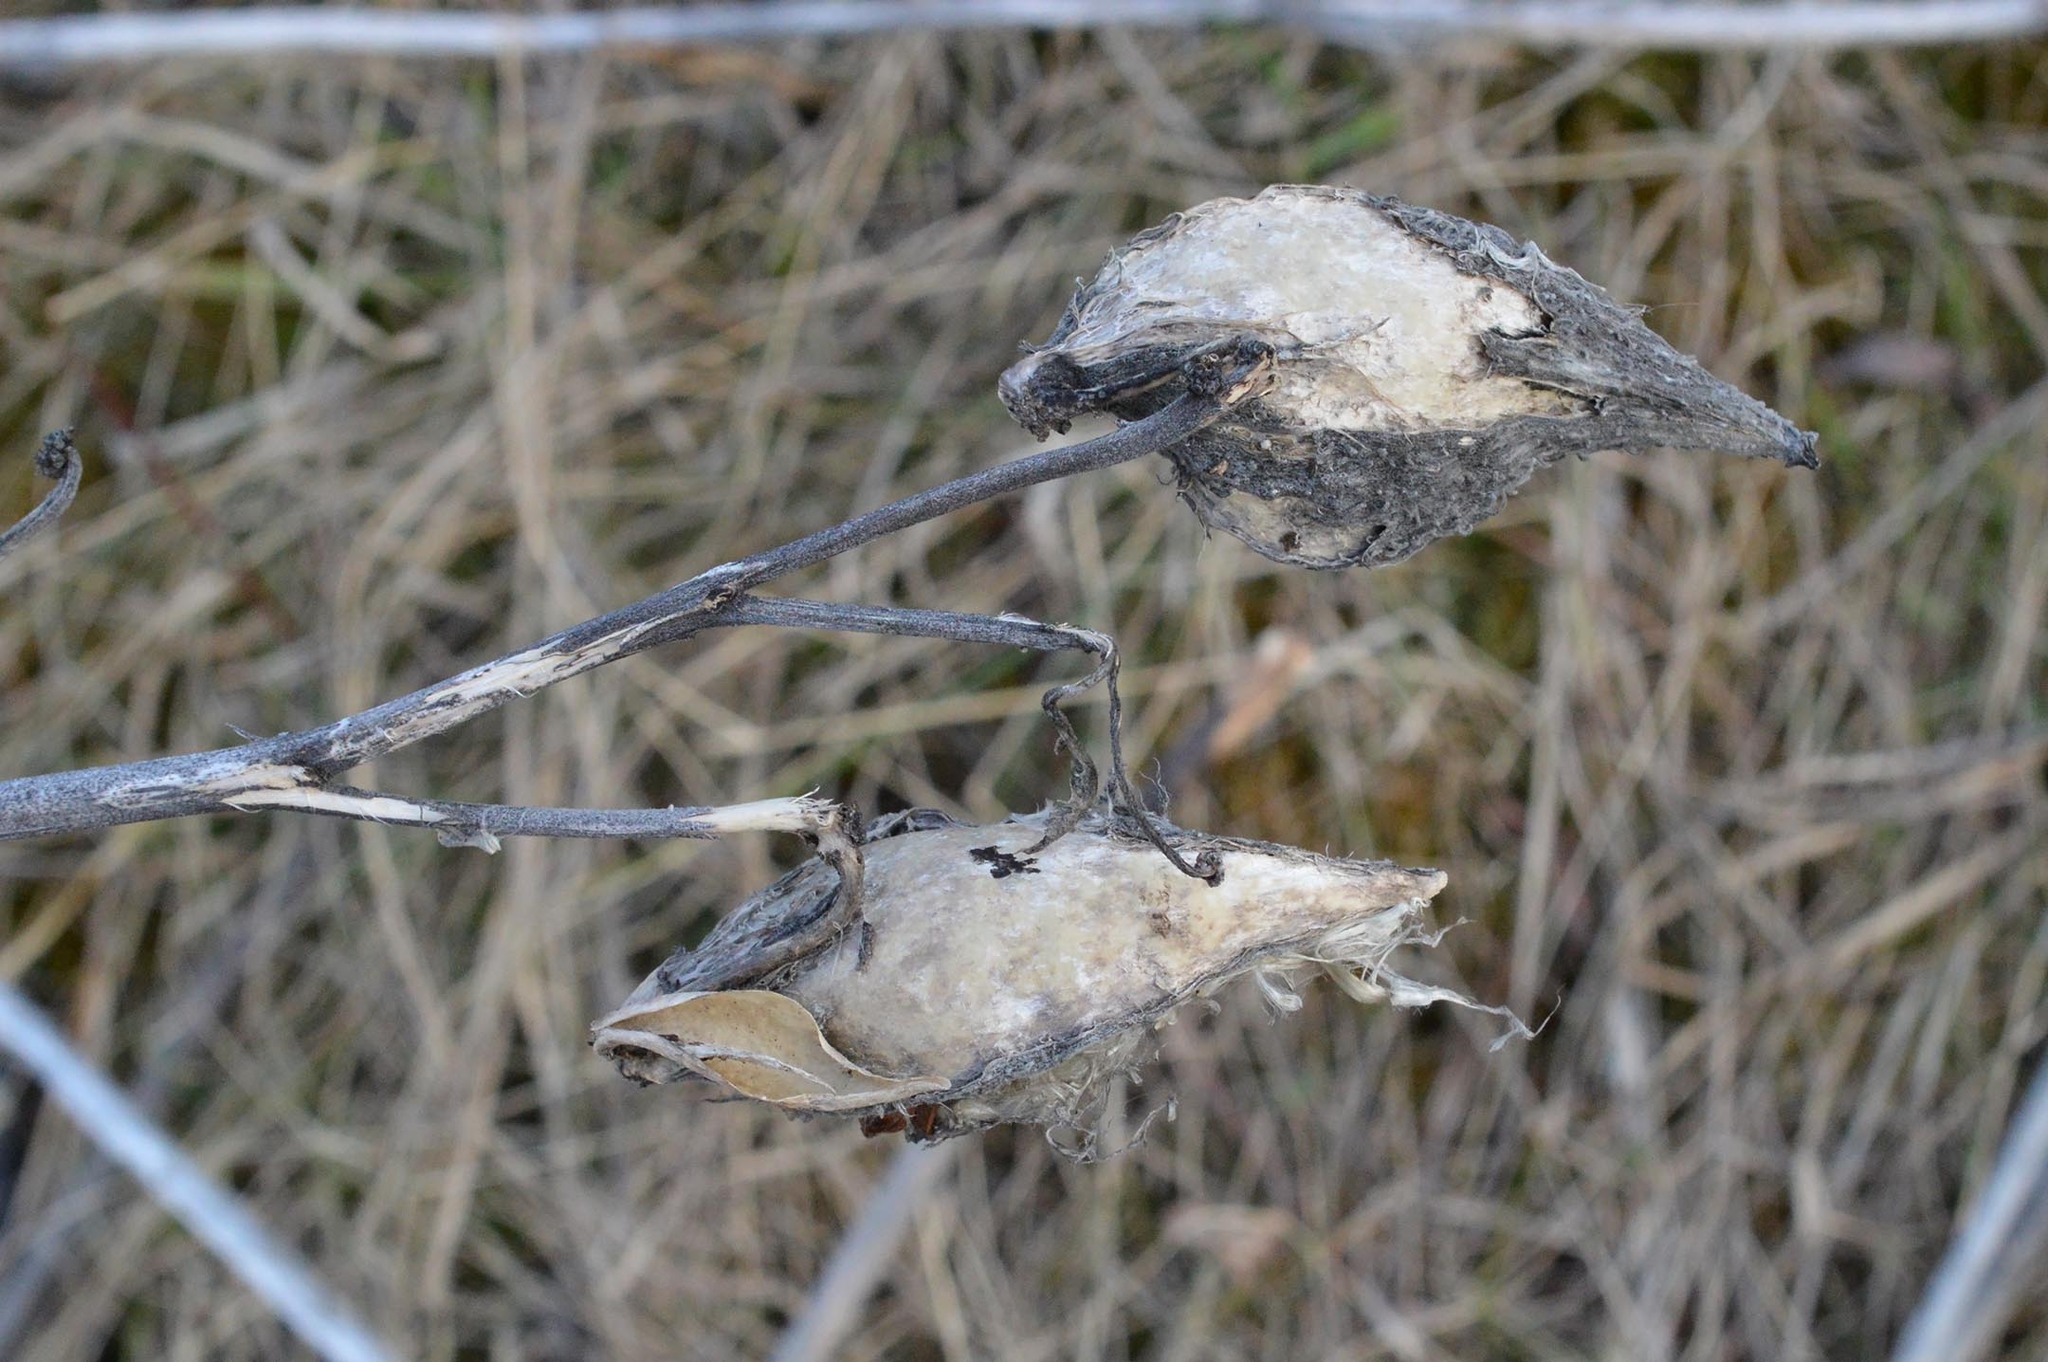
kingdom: Plantae
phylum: Tracheophyta
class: Magnoliopsida
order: Gentianales
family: Apocynaceae
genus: Asclepias
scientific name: Asclepias syriaca
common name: Common milkweed
